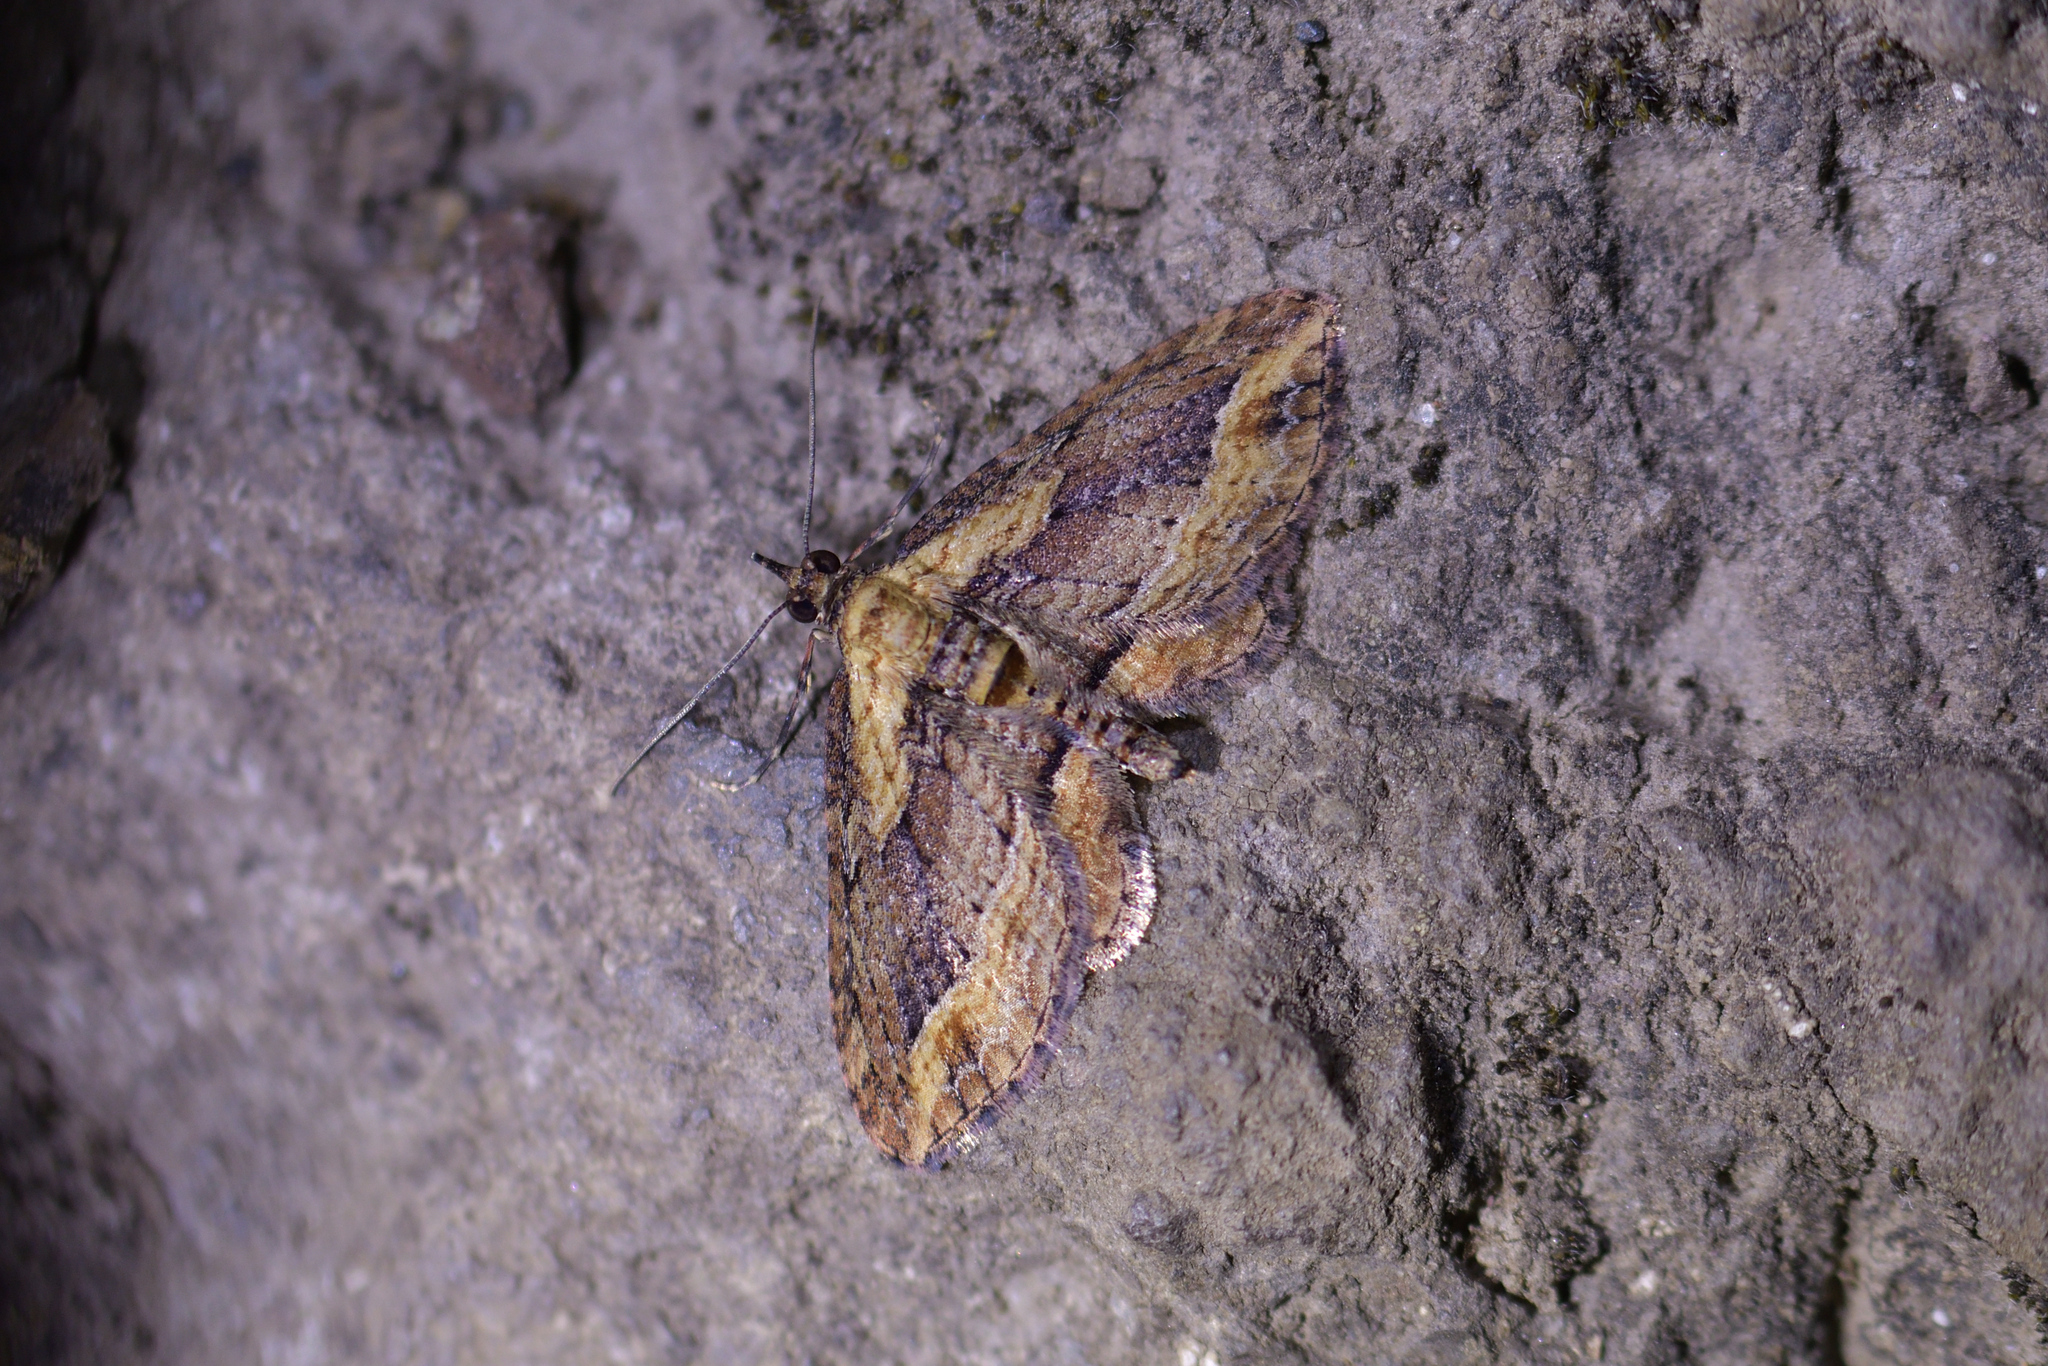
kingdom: Animalia
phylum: Arthropoda
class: Insecta
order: Lepidoptera
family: Geometridae
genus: Chloroclystis
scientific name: Chloroclystis filata
